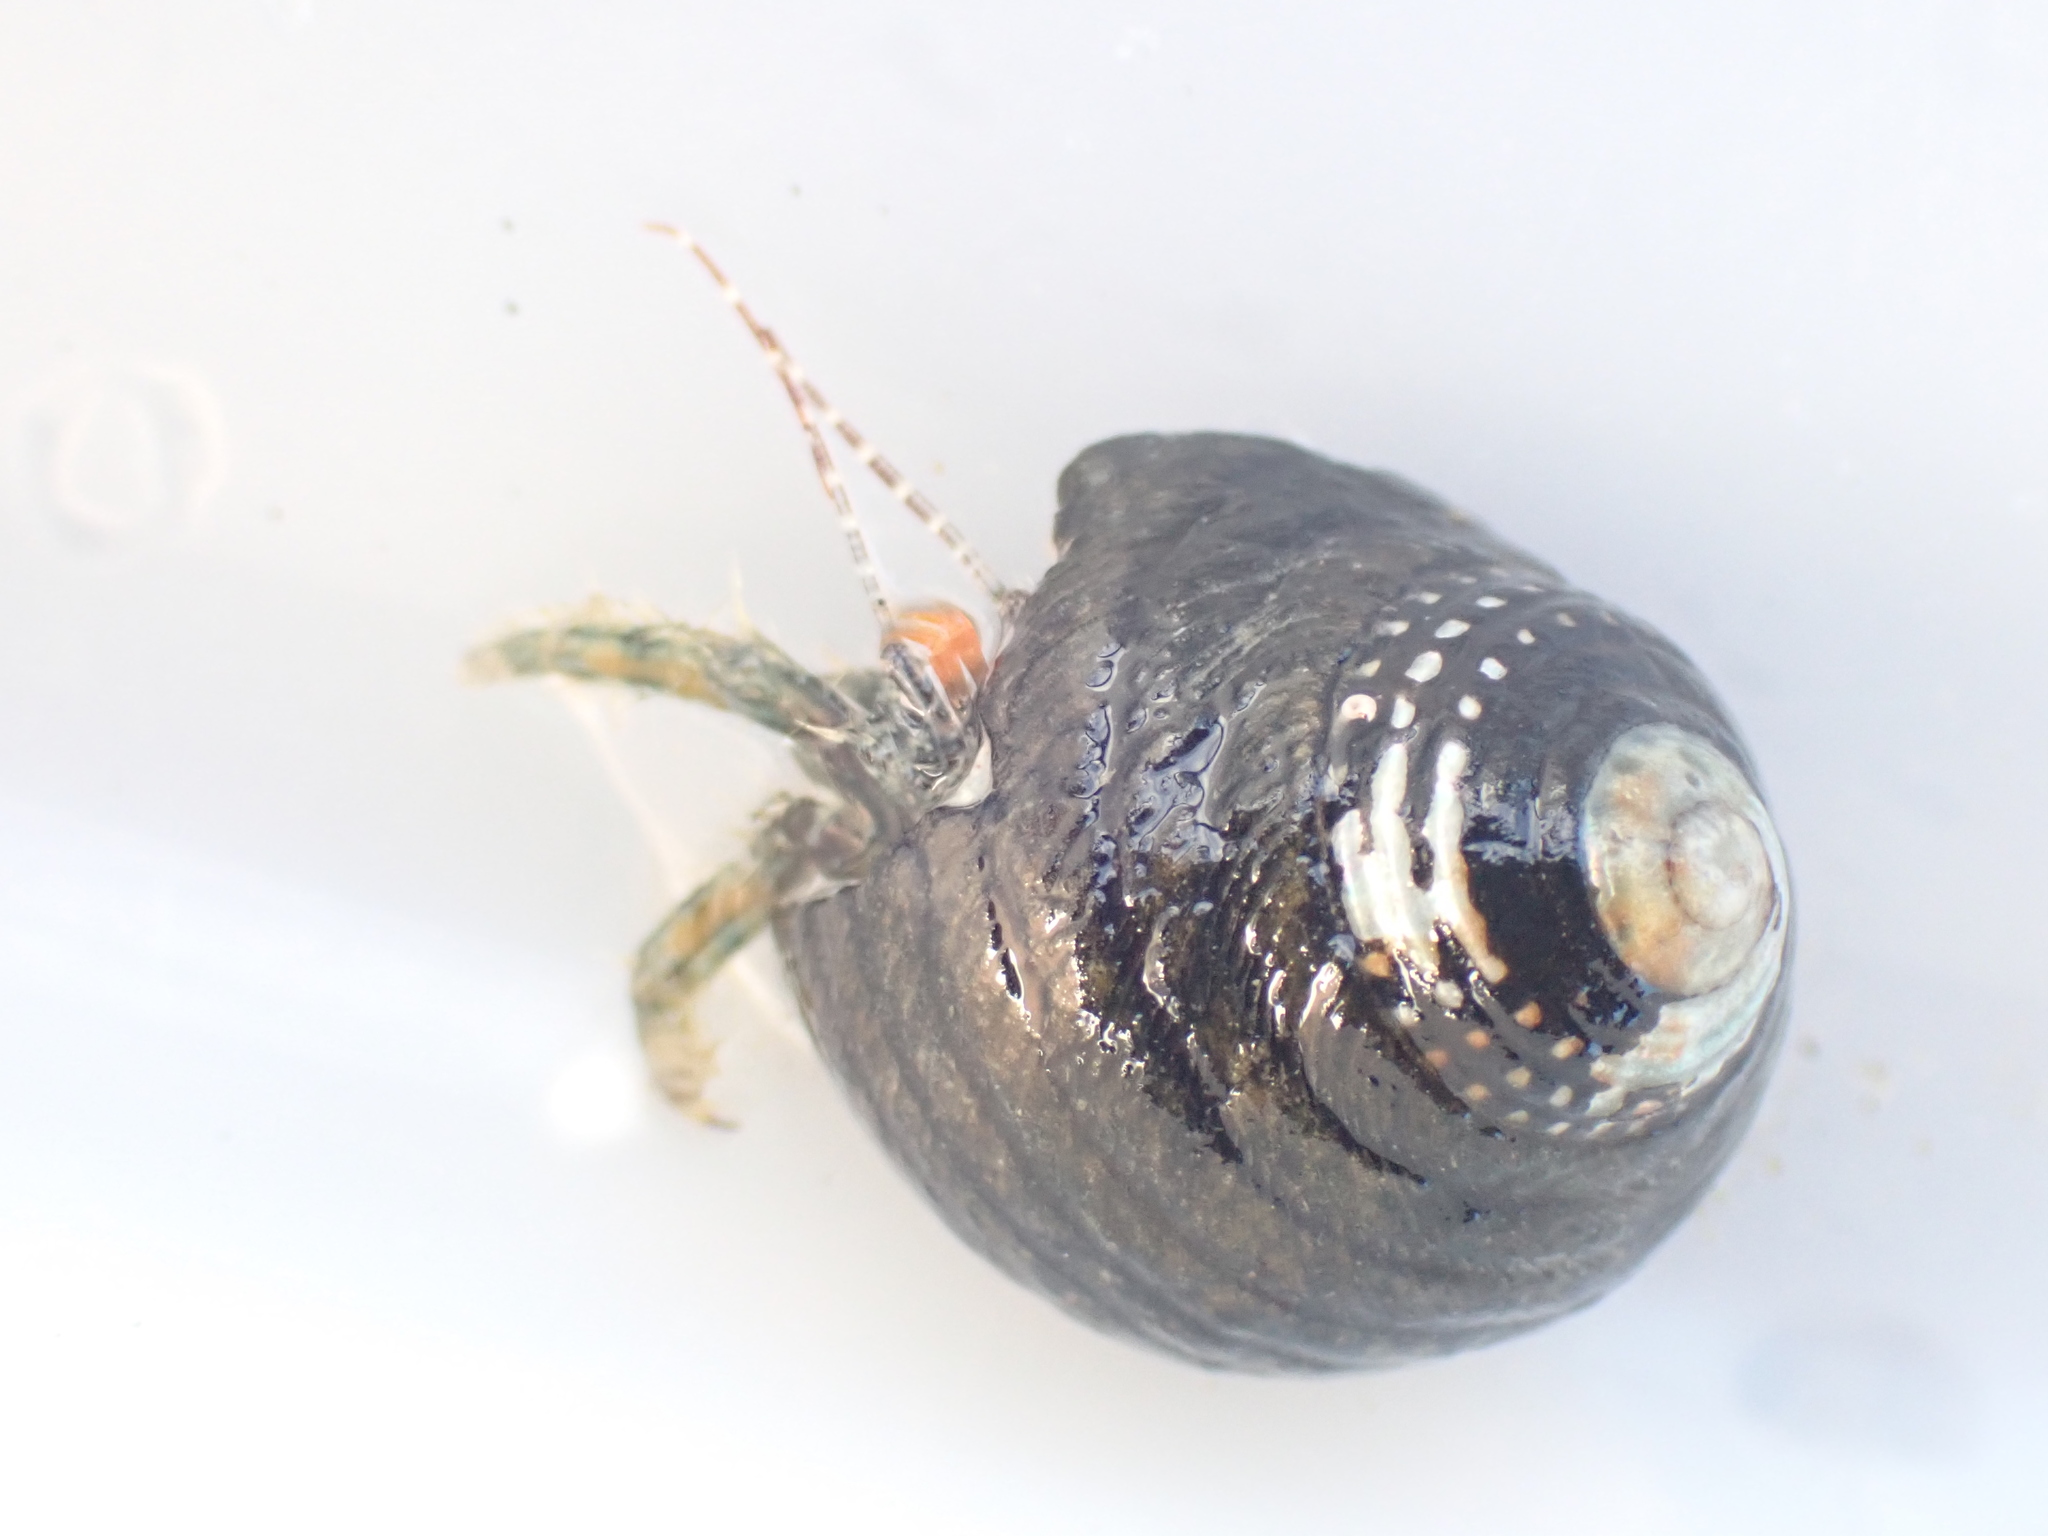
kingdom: Animalia
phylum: Arthropoda
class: Malacostraca
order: Decapoda
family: Paguridae
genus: Pagurus
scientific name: Pagurus traversi
